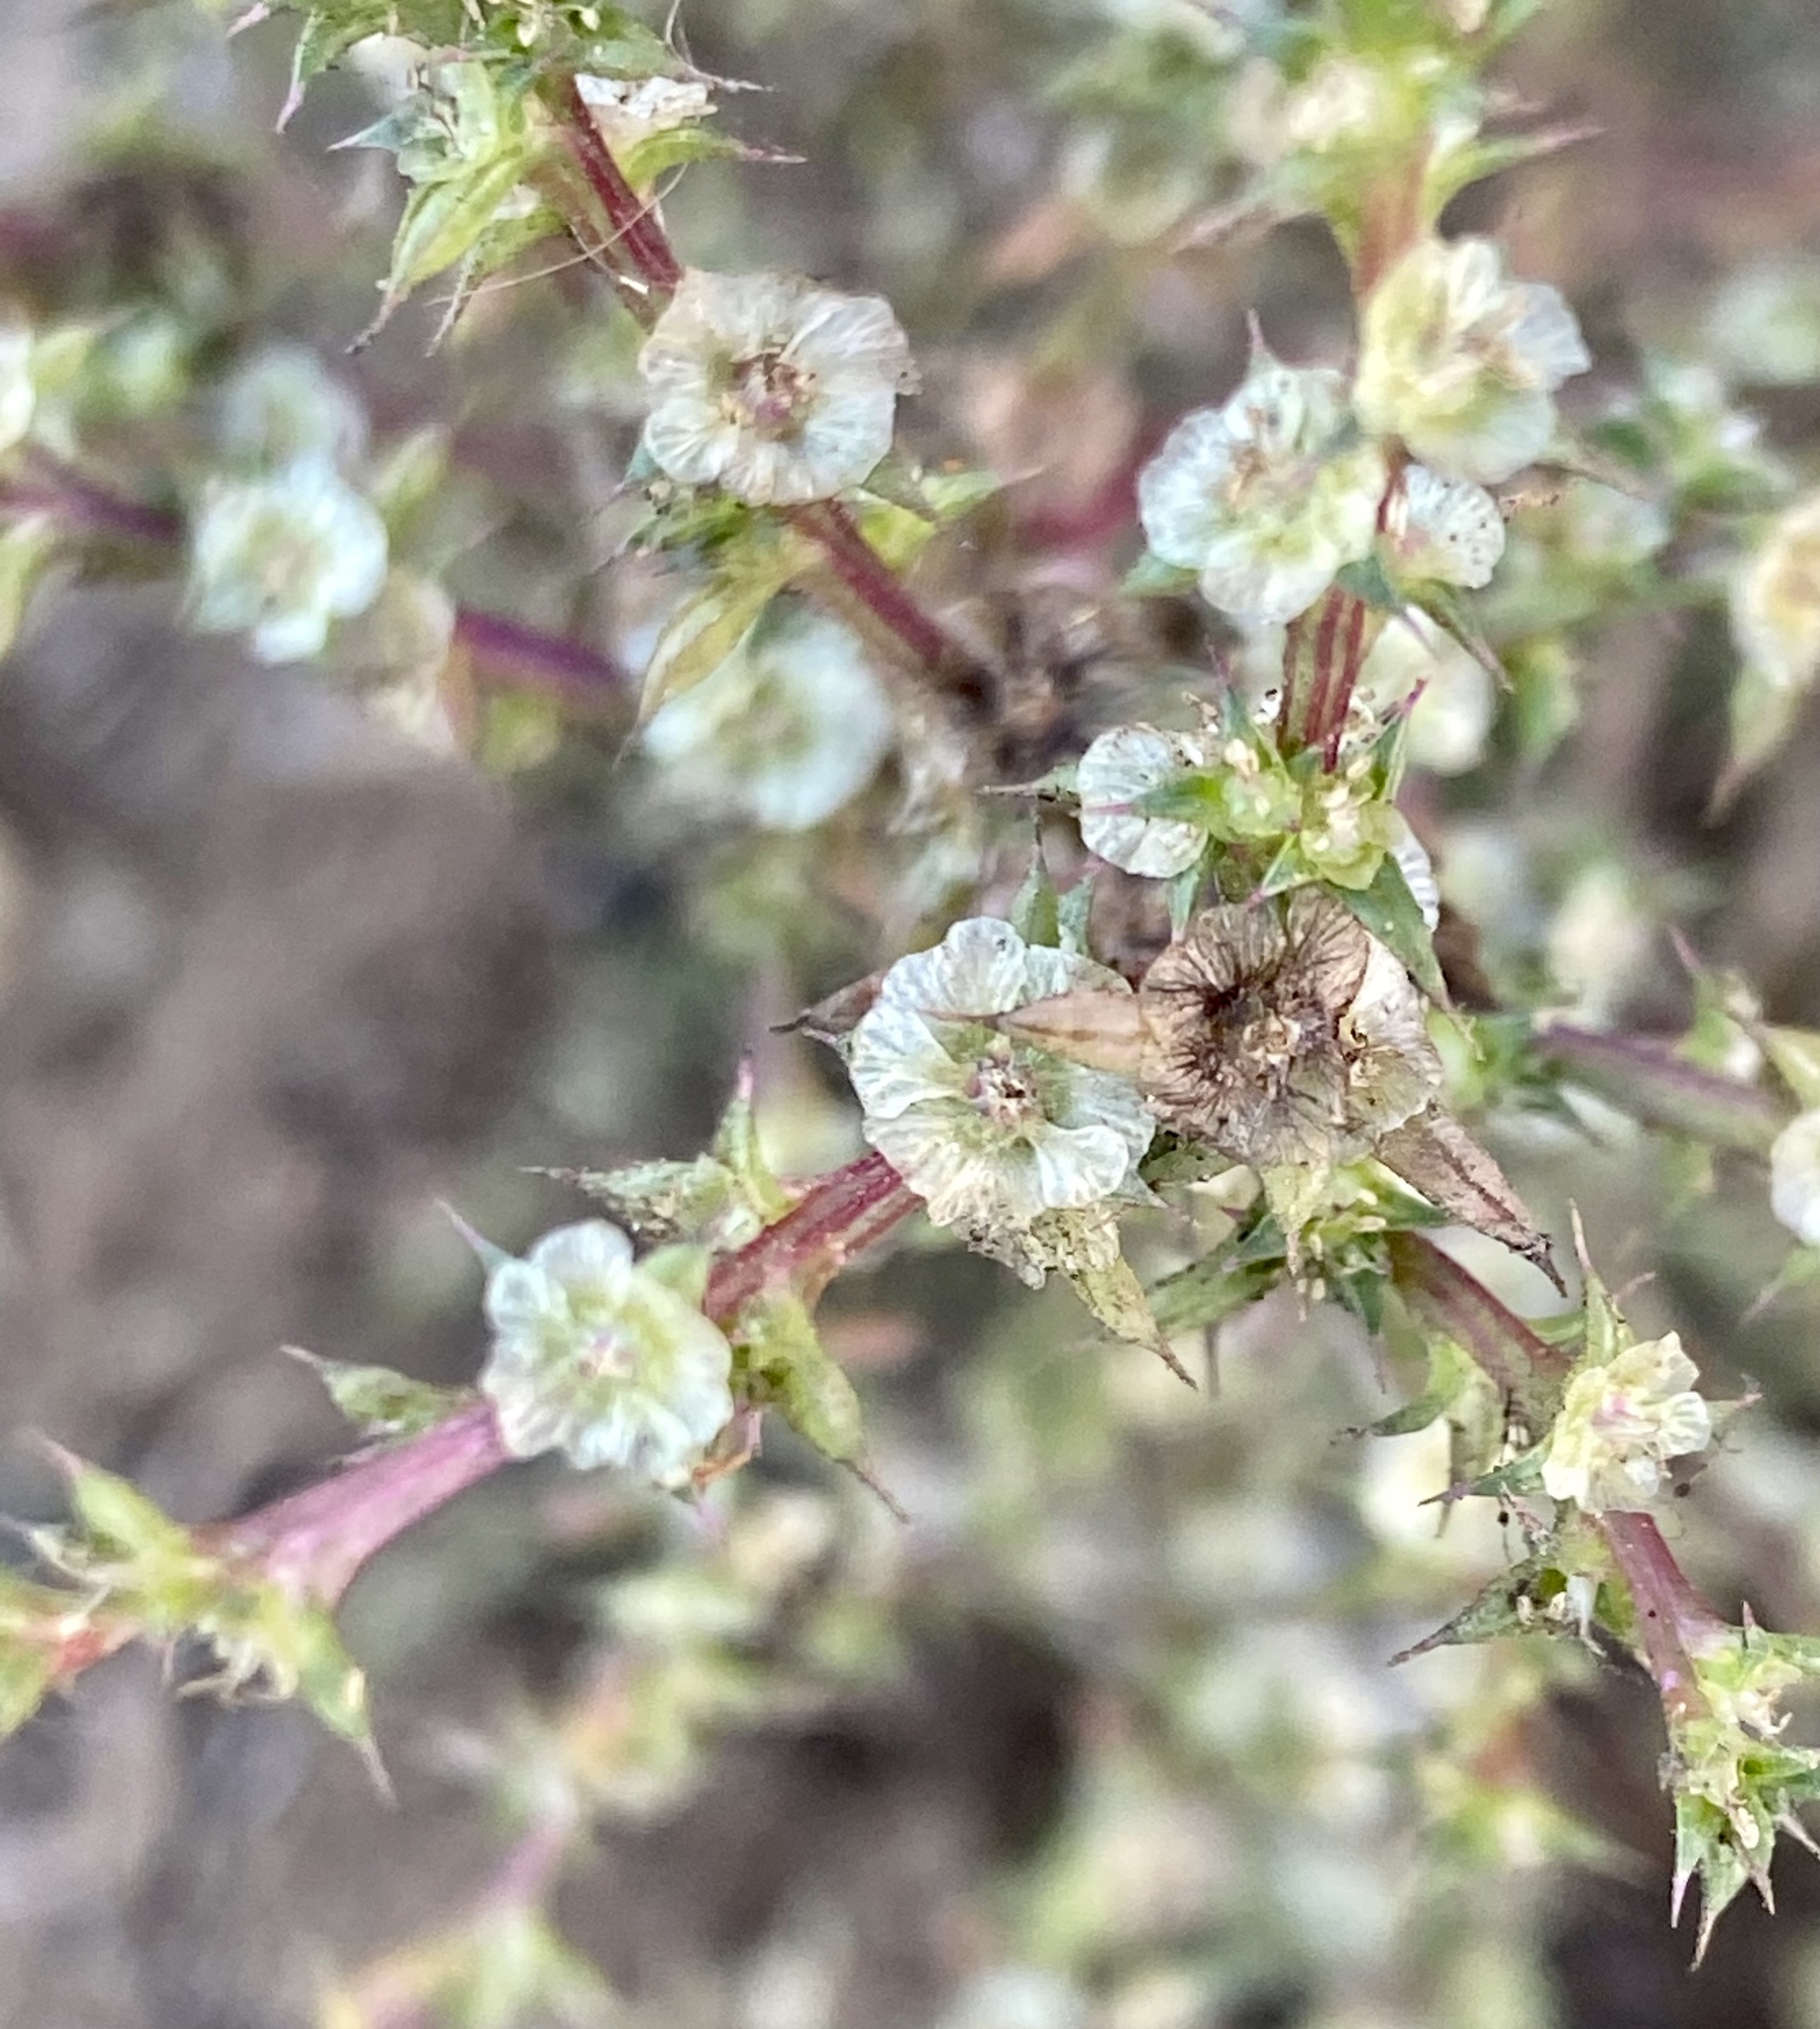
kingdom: Plantae
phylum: Tracheophyta
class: Magnoliopsida
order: Caryophyllales
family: Amaranthaceae
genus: Salsola
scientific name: Salsola australis
